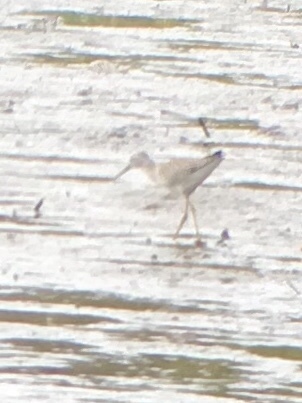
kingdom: Animalia
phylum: Chordata
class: Aves
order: Charadriiformes
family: Scolopacidae
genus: Tringa
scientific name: Tringa
